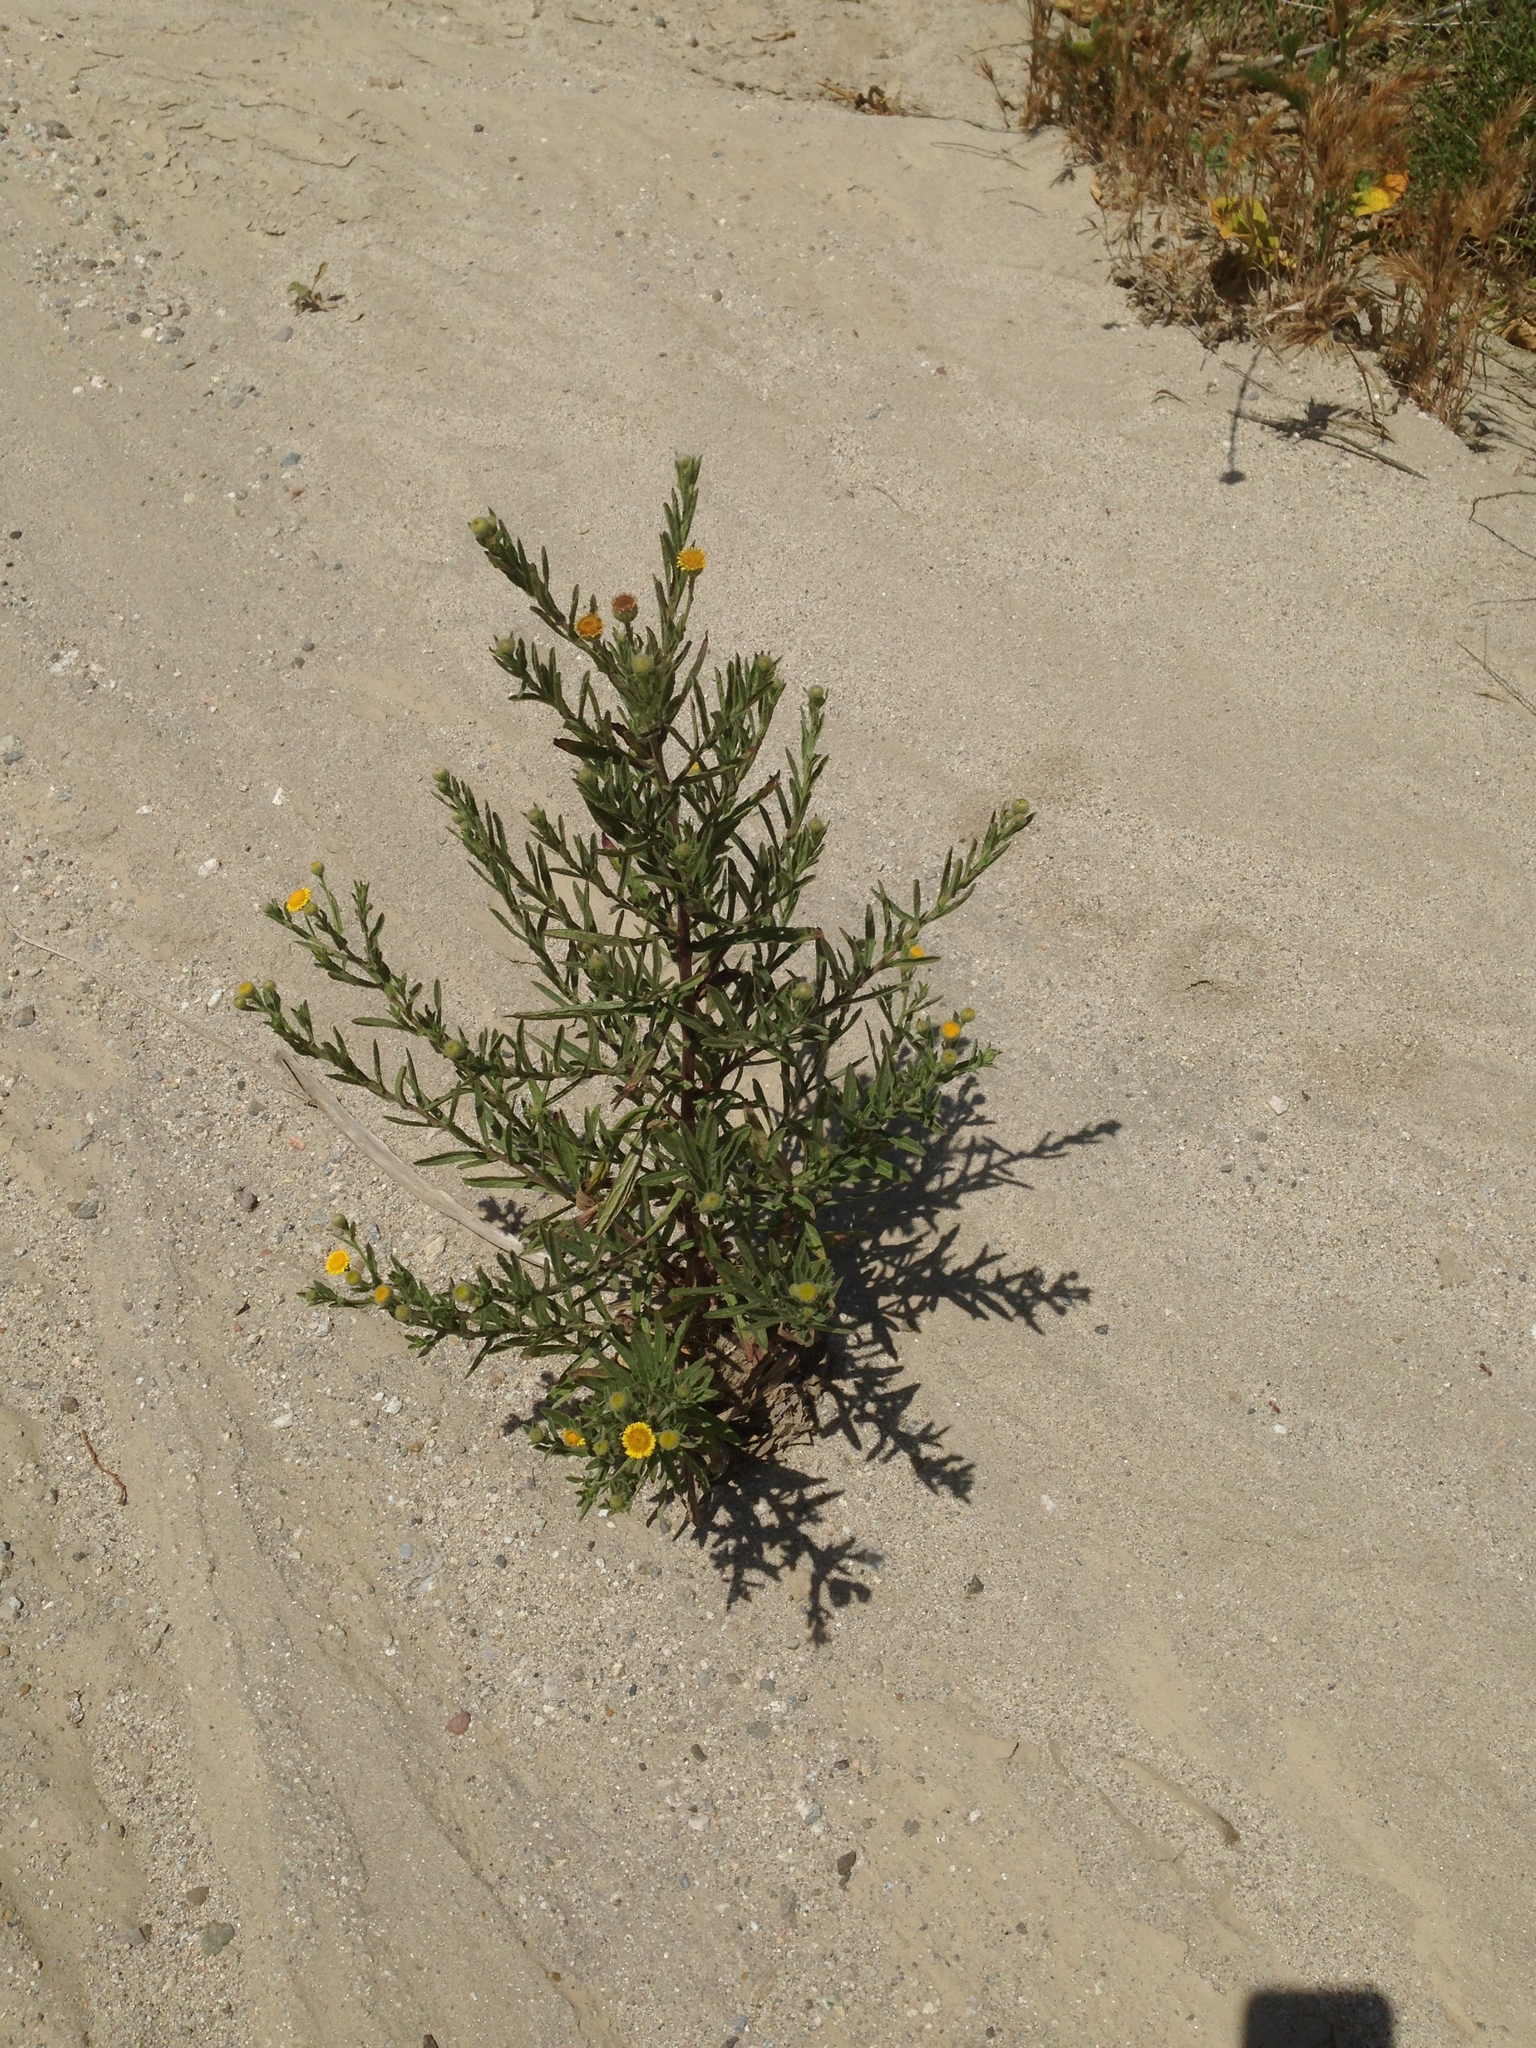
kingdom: Plantae
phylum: Tracheophyta
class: Magnoliopsida
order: Asterales
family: Asteraceae
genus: Pulicaria
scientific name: Pulicaria paludosa
